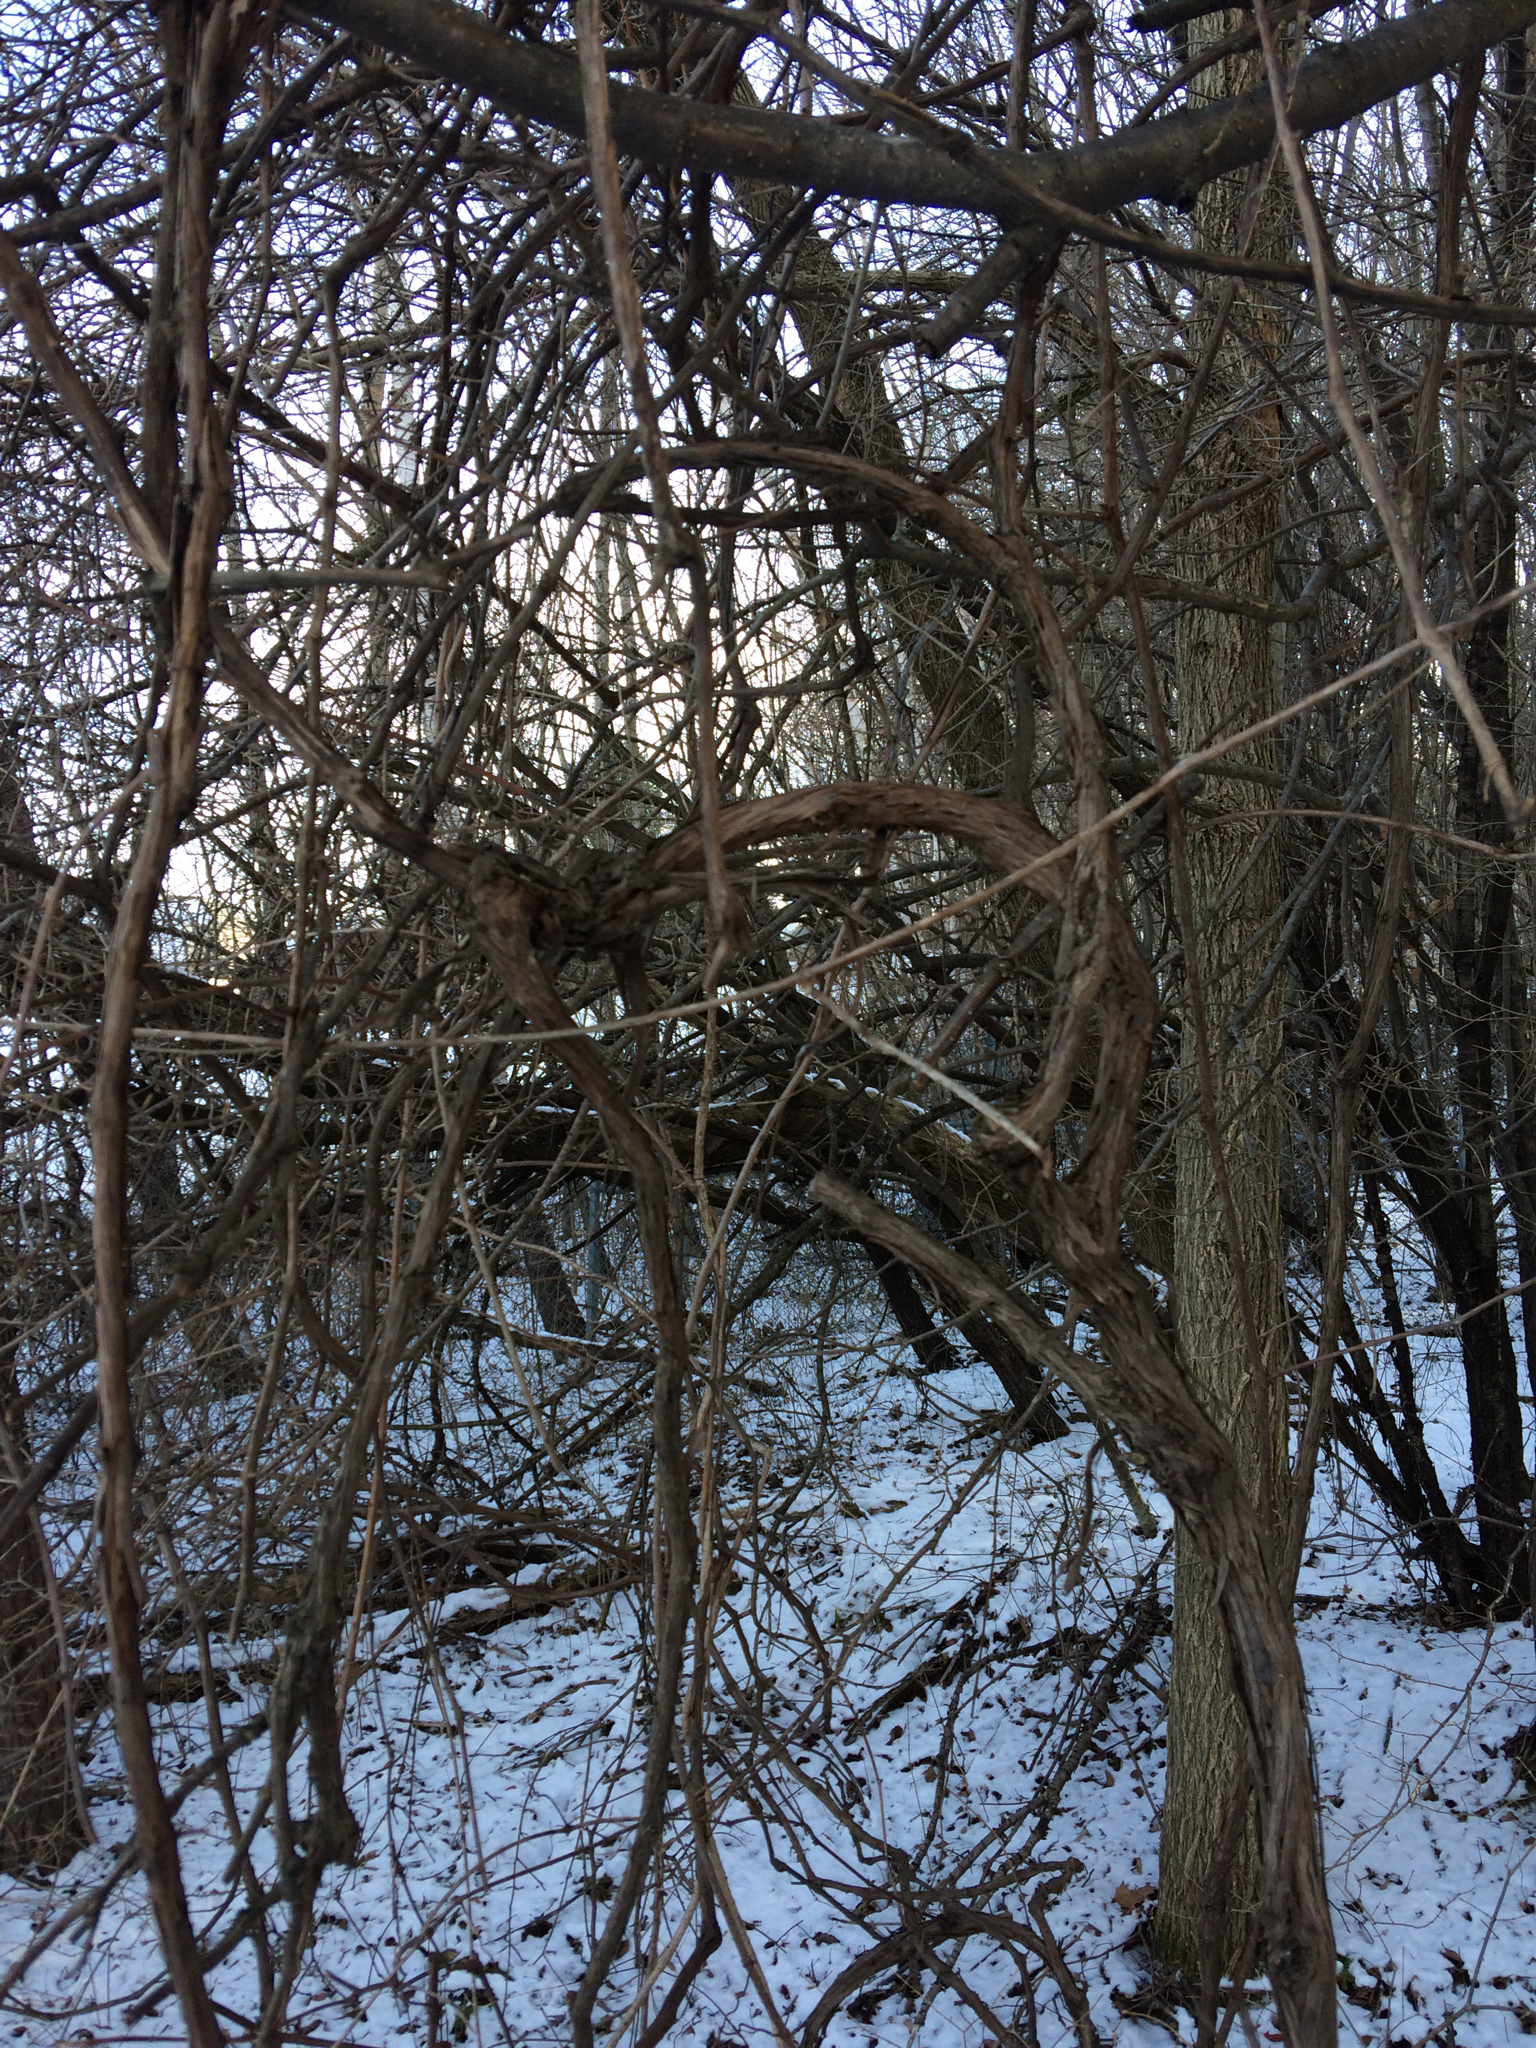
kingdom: Plantae
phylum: Tracheophyta
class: Magnoliopsida
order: Vitales
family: Vitaceae
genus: Vitis
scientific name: Vitis
